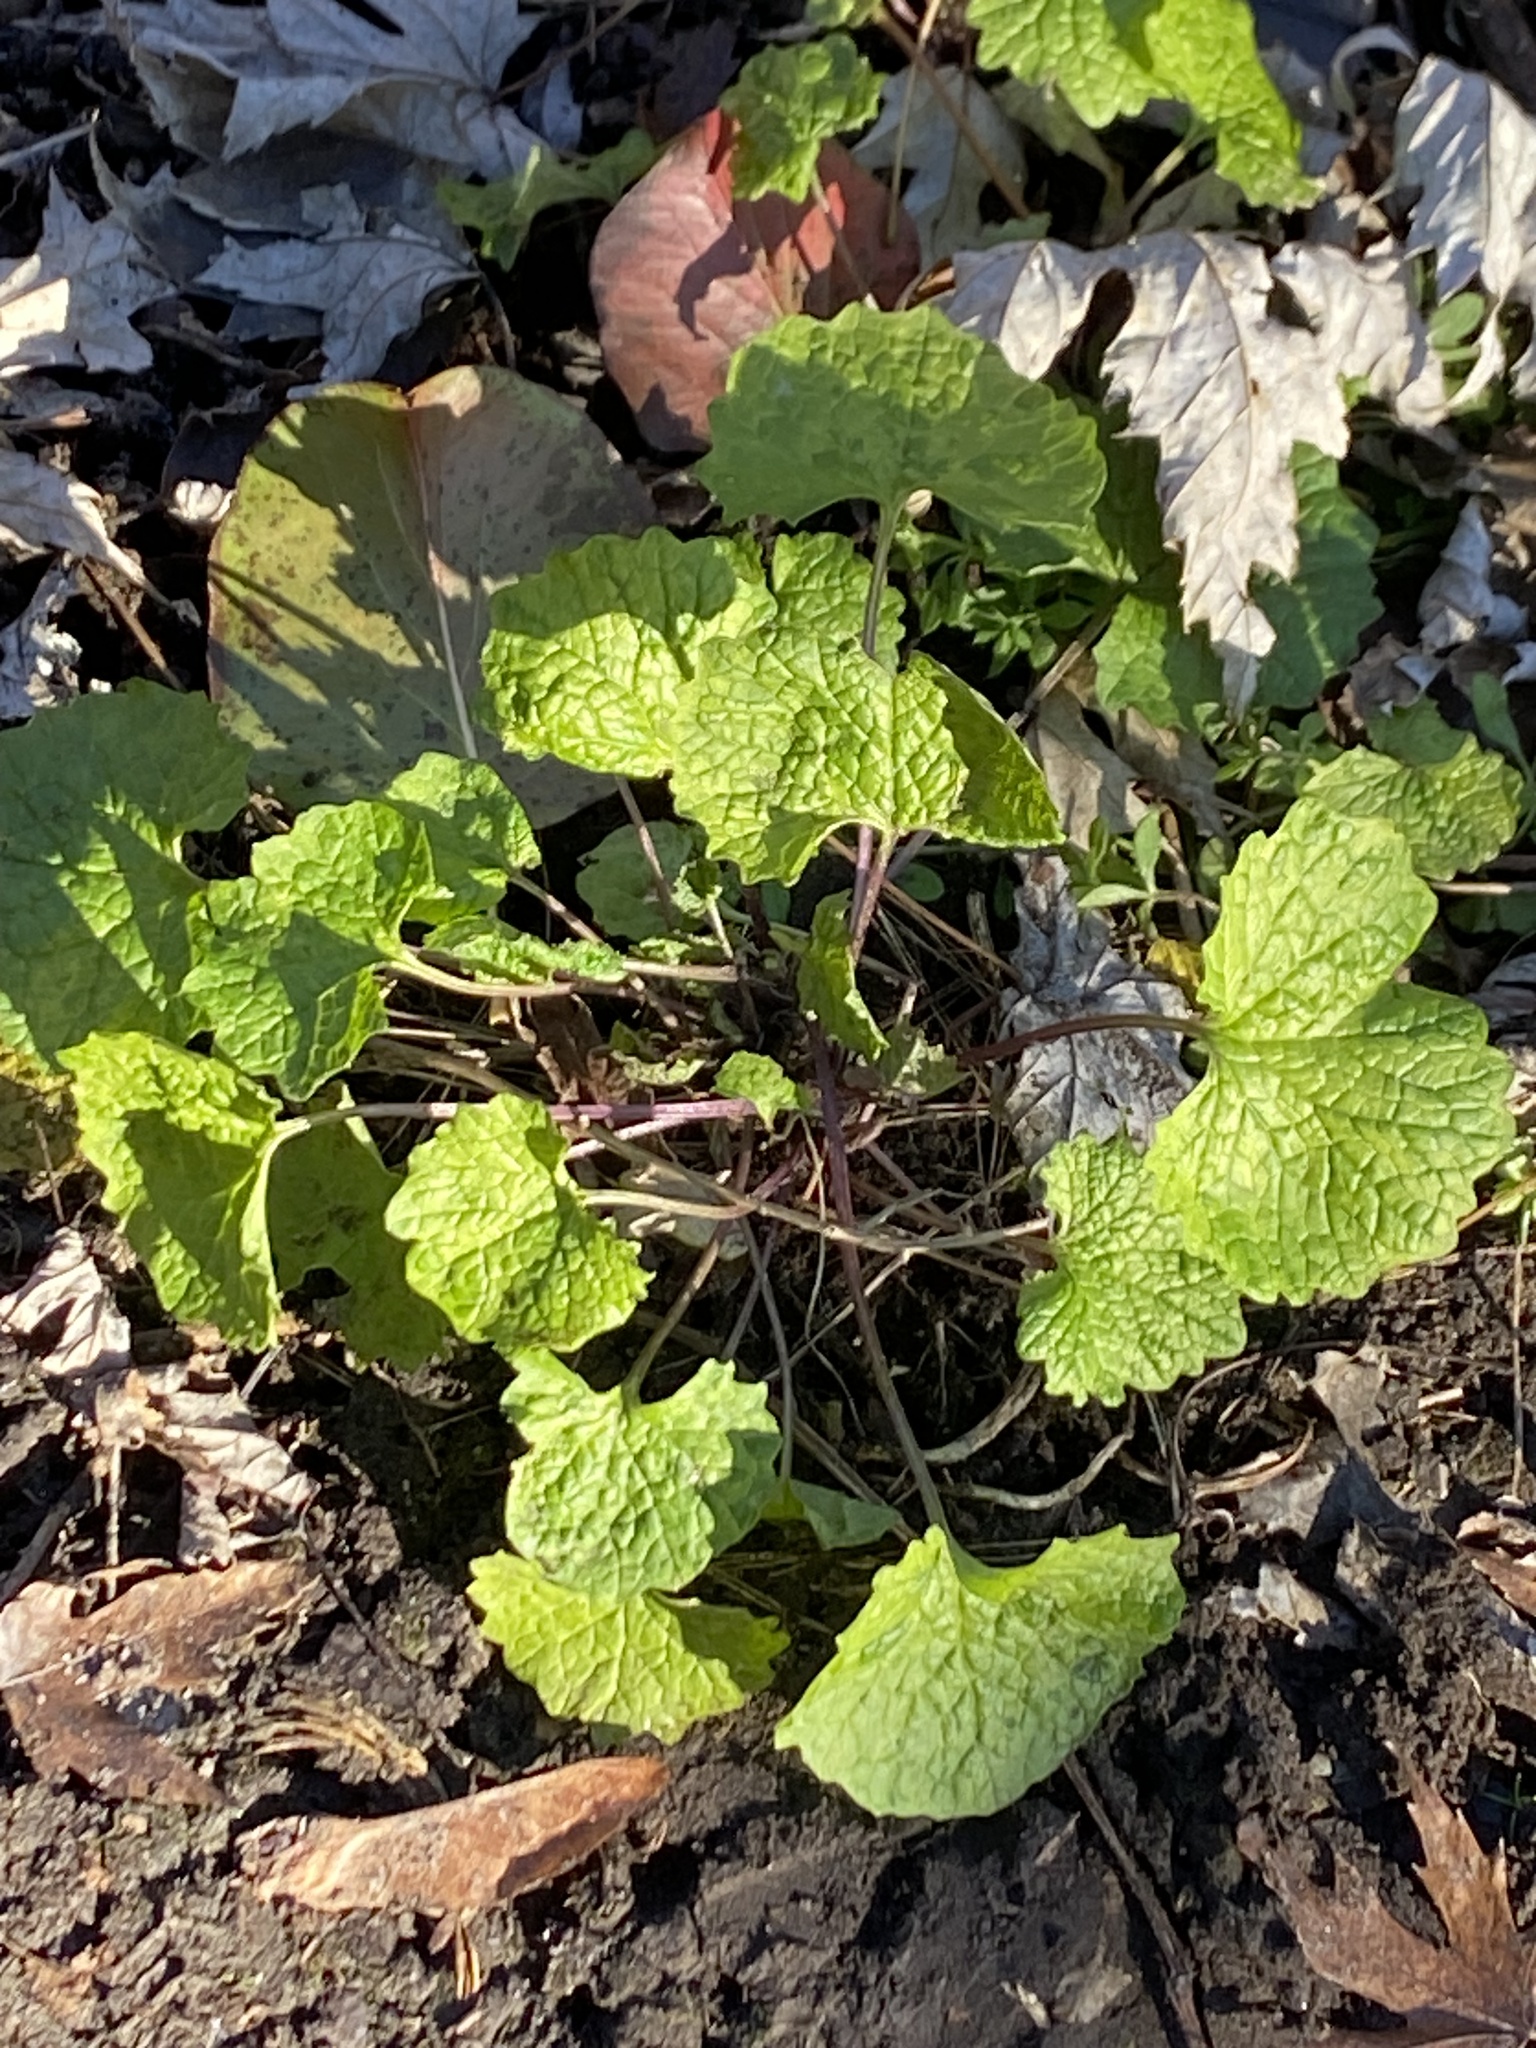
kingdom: Plantae
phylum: Tracheophyta
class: Magnoliopsida
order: Brassicales
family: Brassicaceae
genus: Alliaria
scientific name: Alliaria petiolata
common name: Garlic mustard
